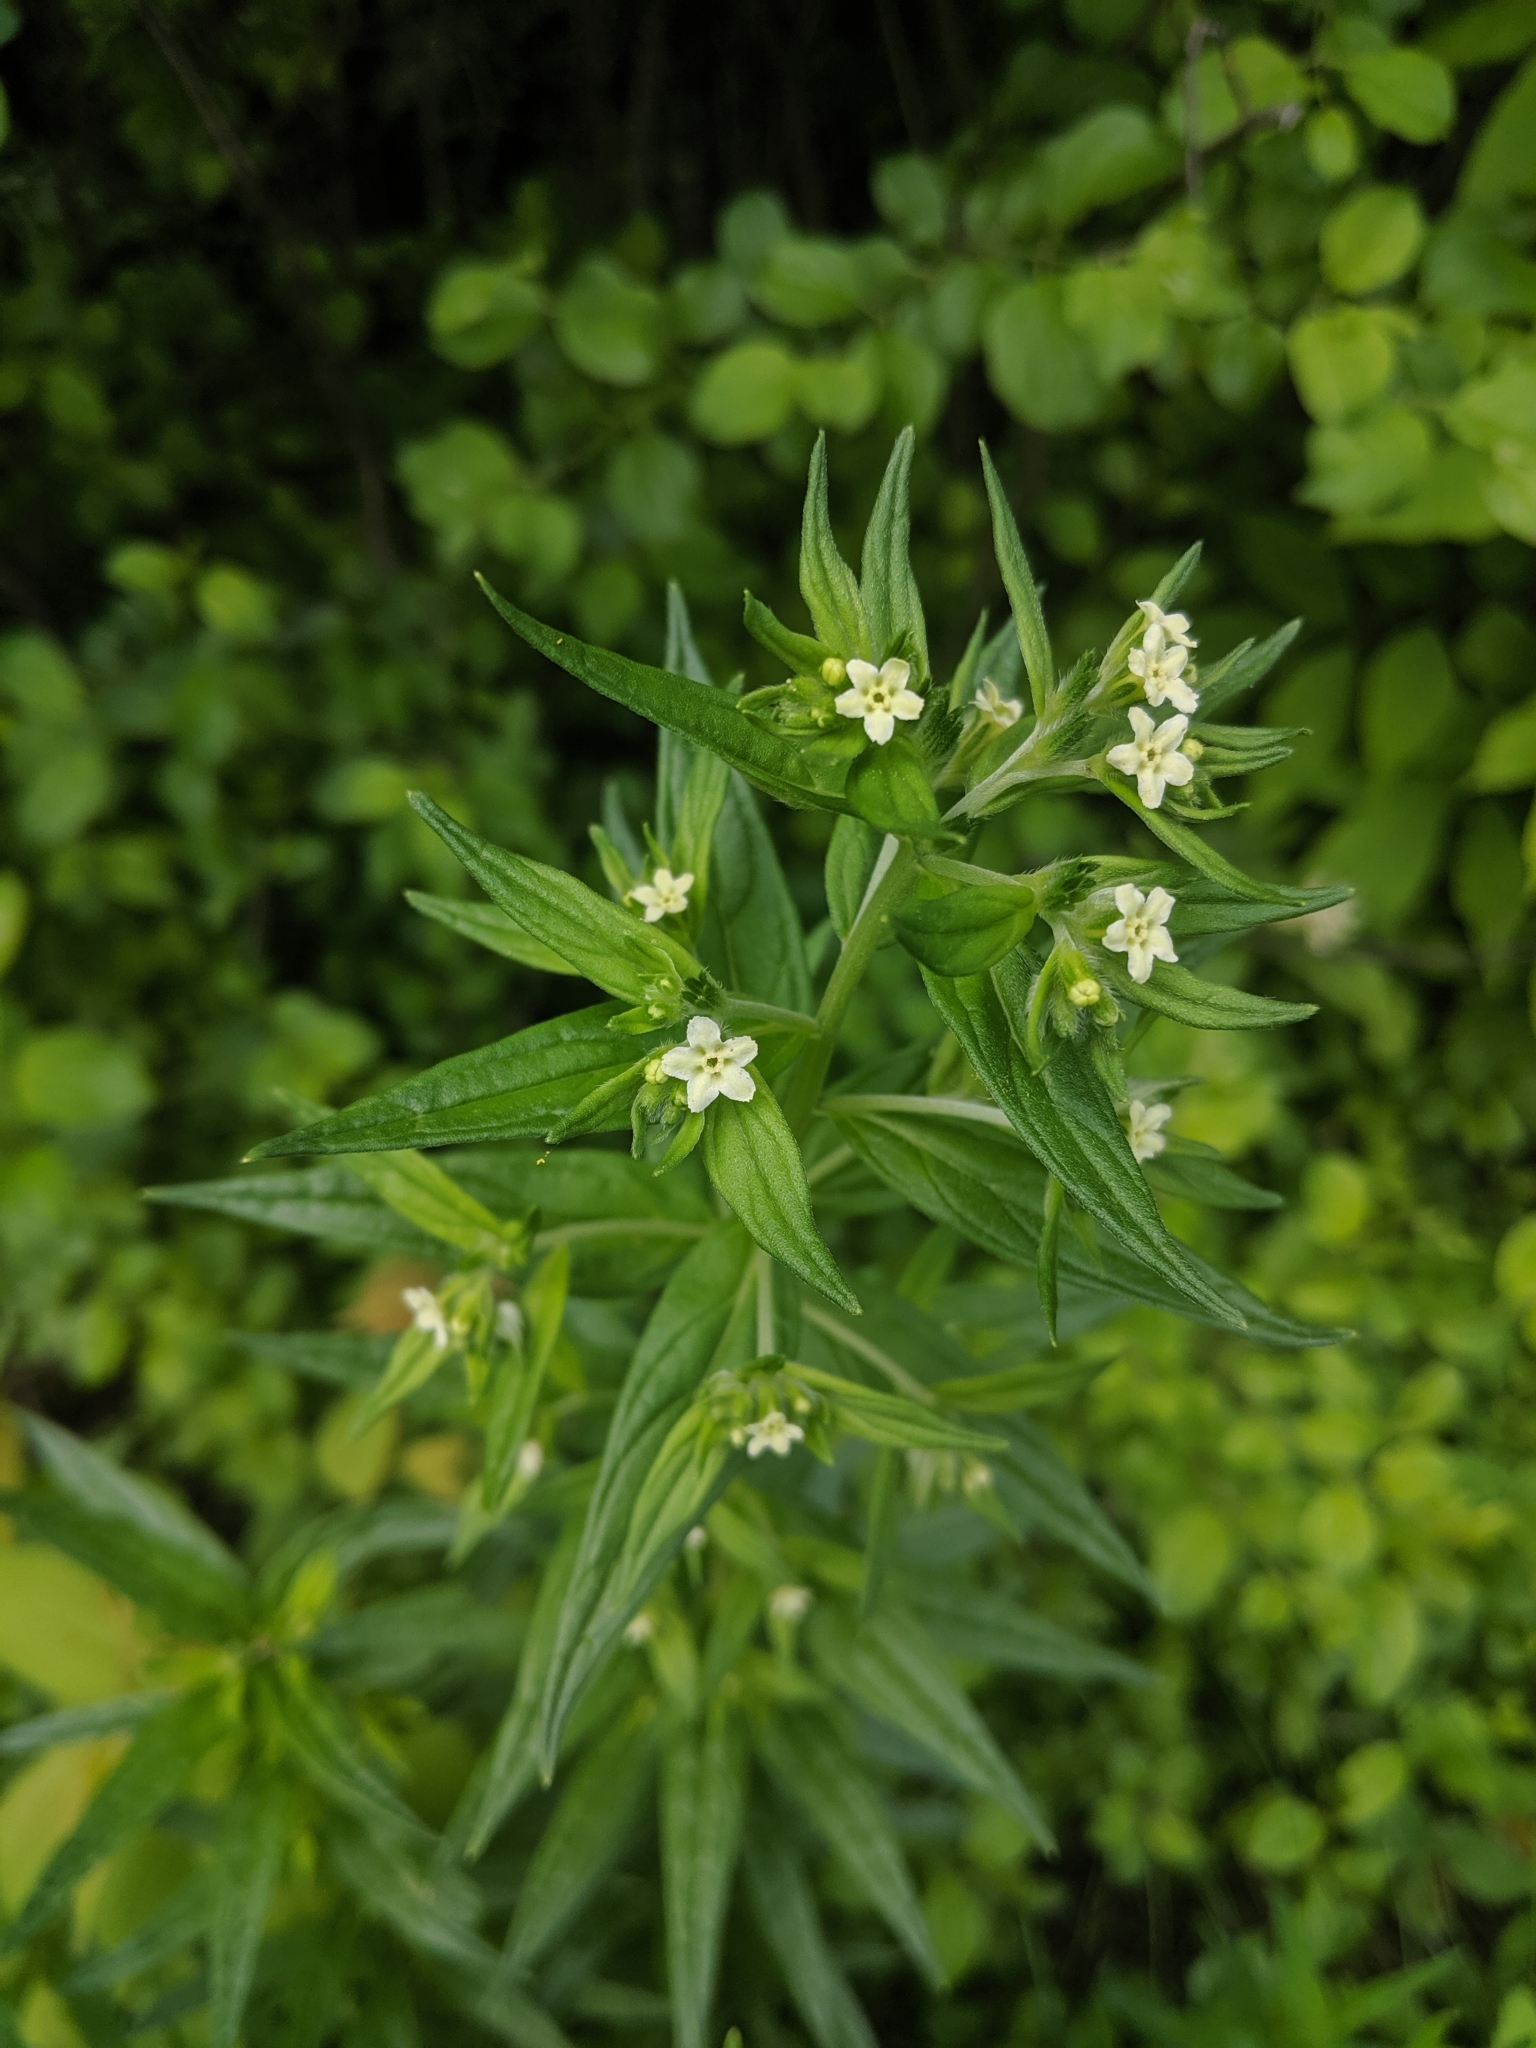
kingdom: Plantae
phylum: Tracheophyta
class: Magnoliopsida
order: Boraginales
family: Boraginaceae
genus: Lithospermum
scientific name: Lithospermum officinale
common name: Common gromwell
